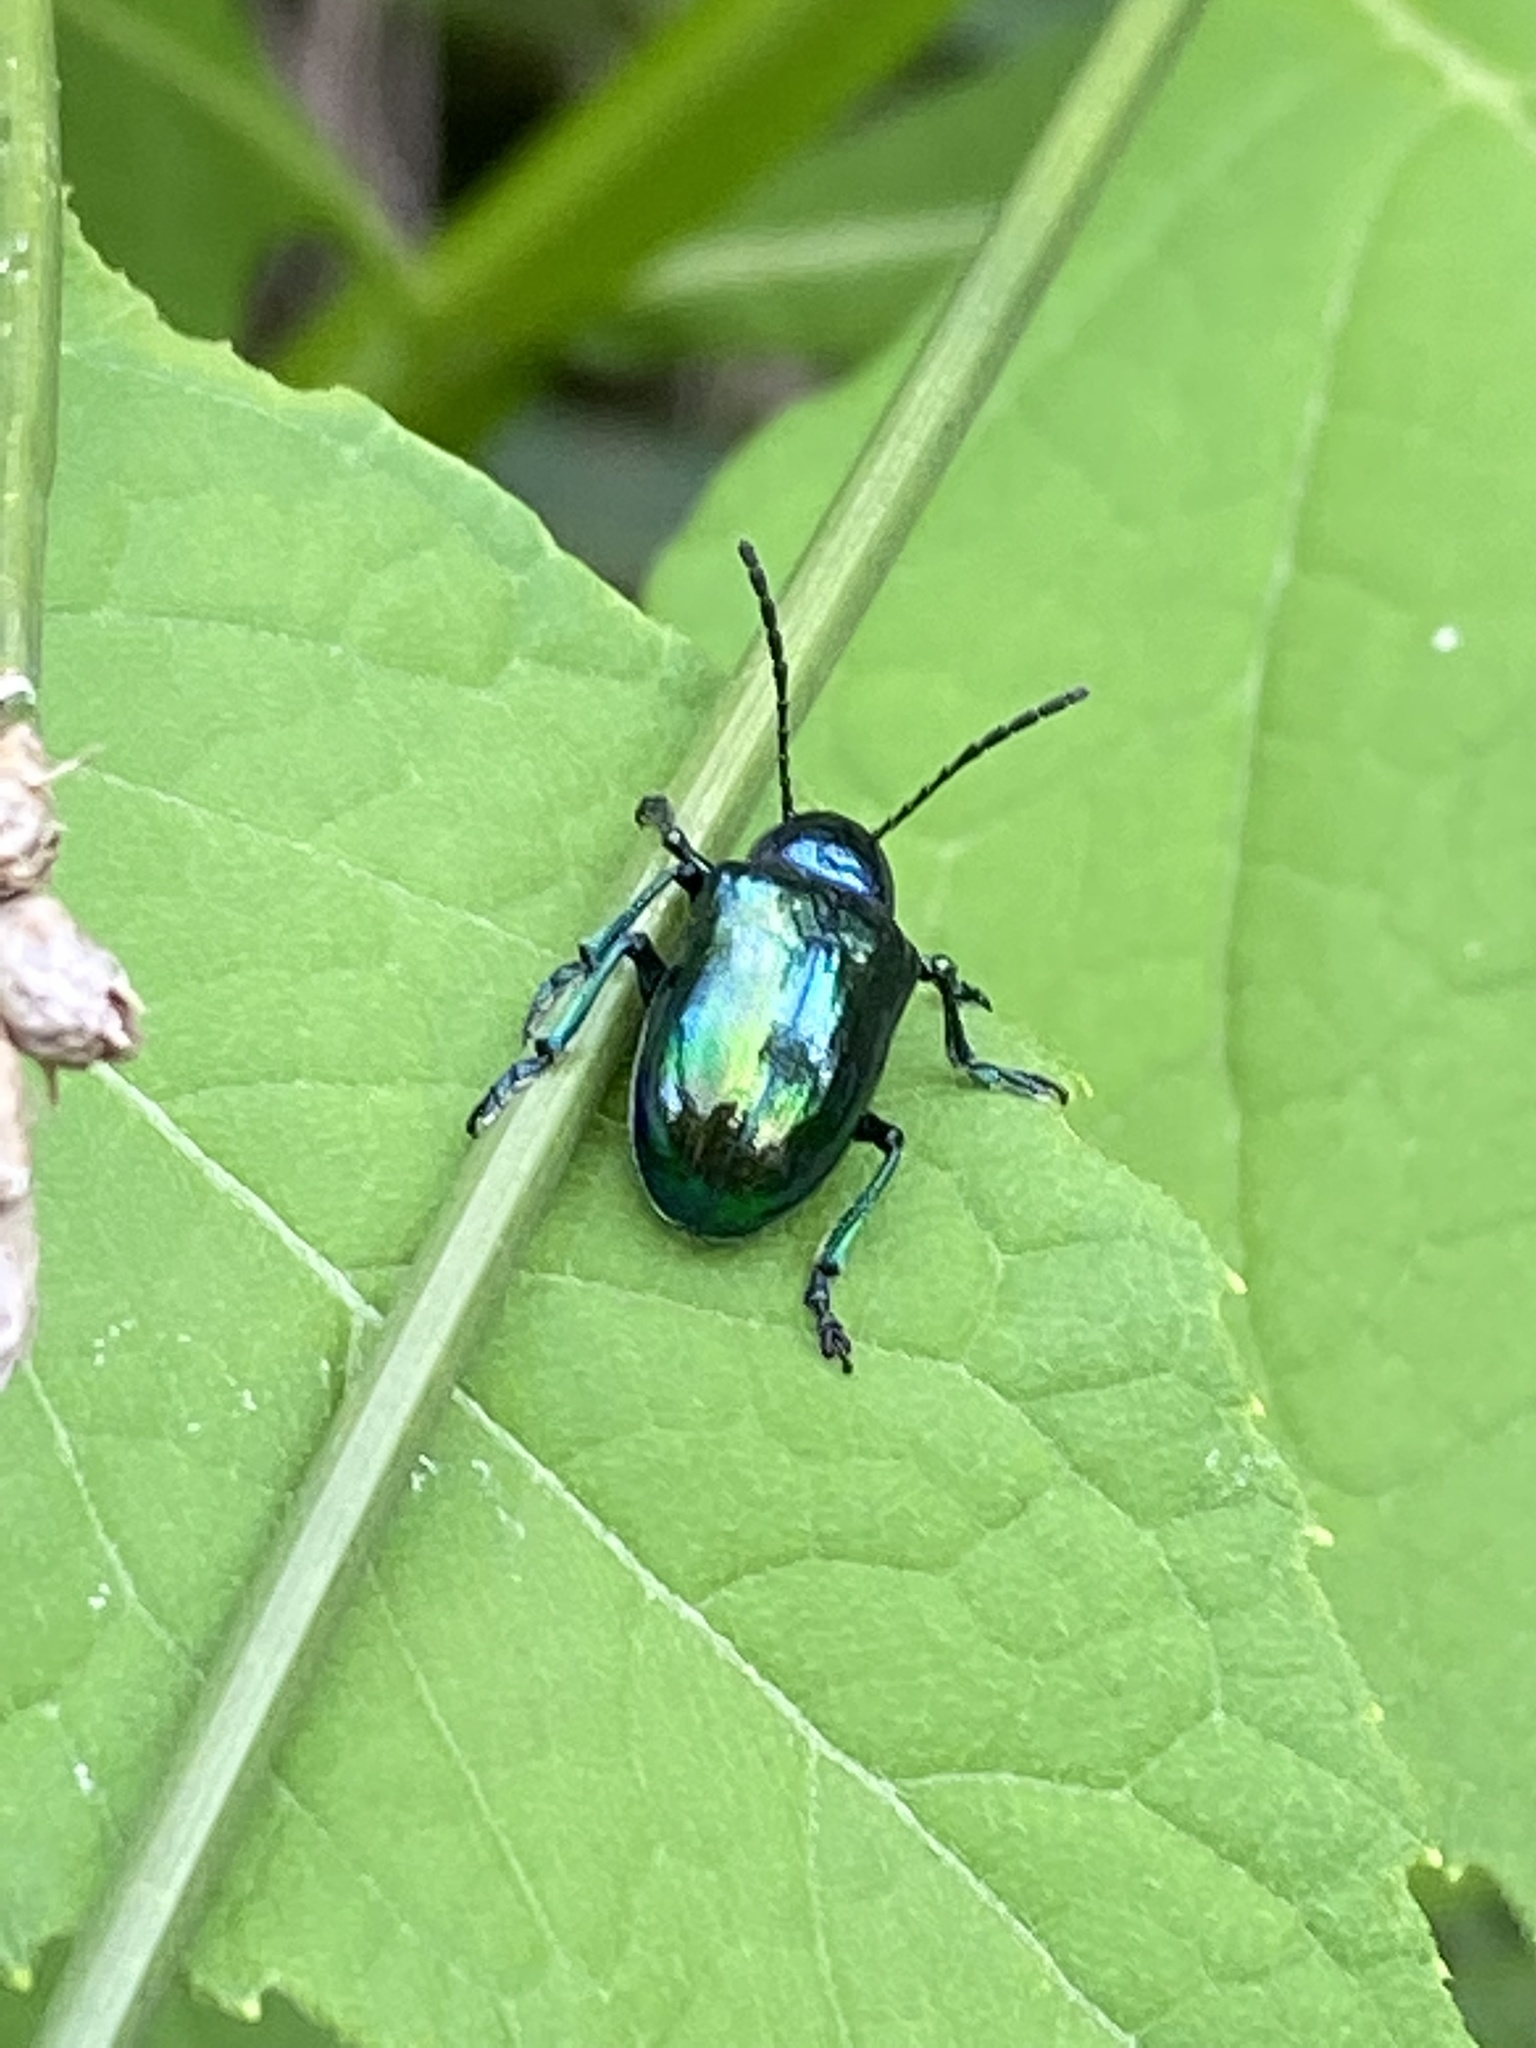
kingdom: Animalia
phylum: Arthropoda
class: Insecta
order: Coleoptera
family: Chrysomelidae
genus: Chrysochus
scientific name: Chrysochus auratus
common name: Dogbane leaf beetle
